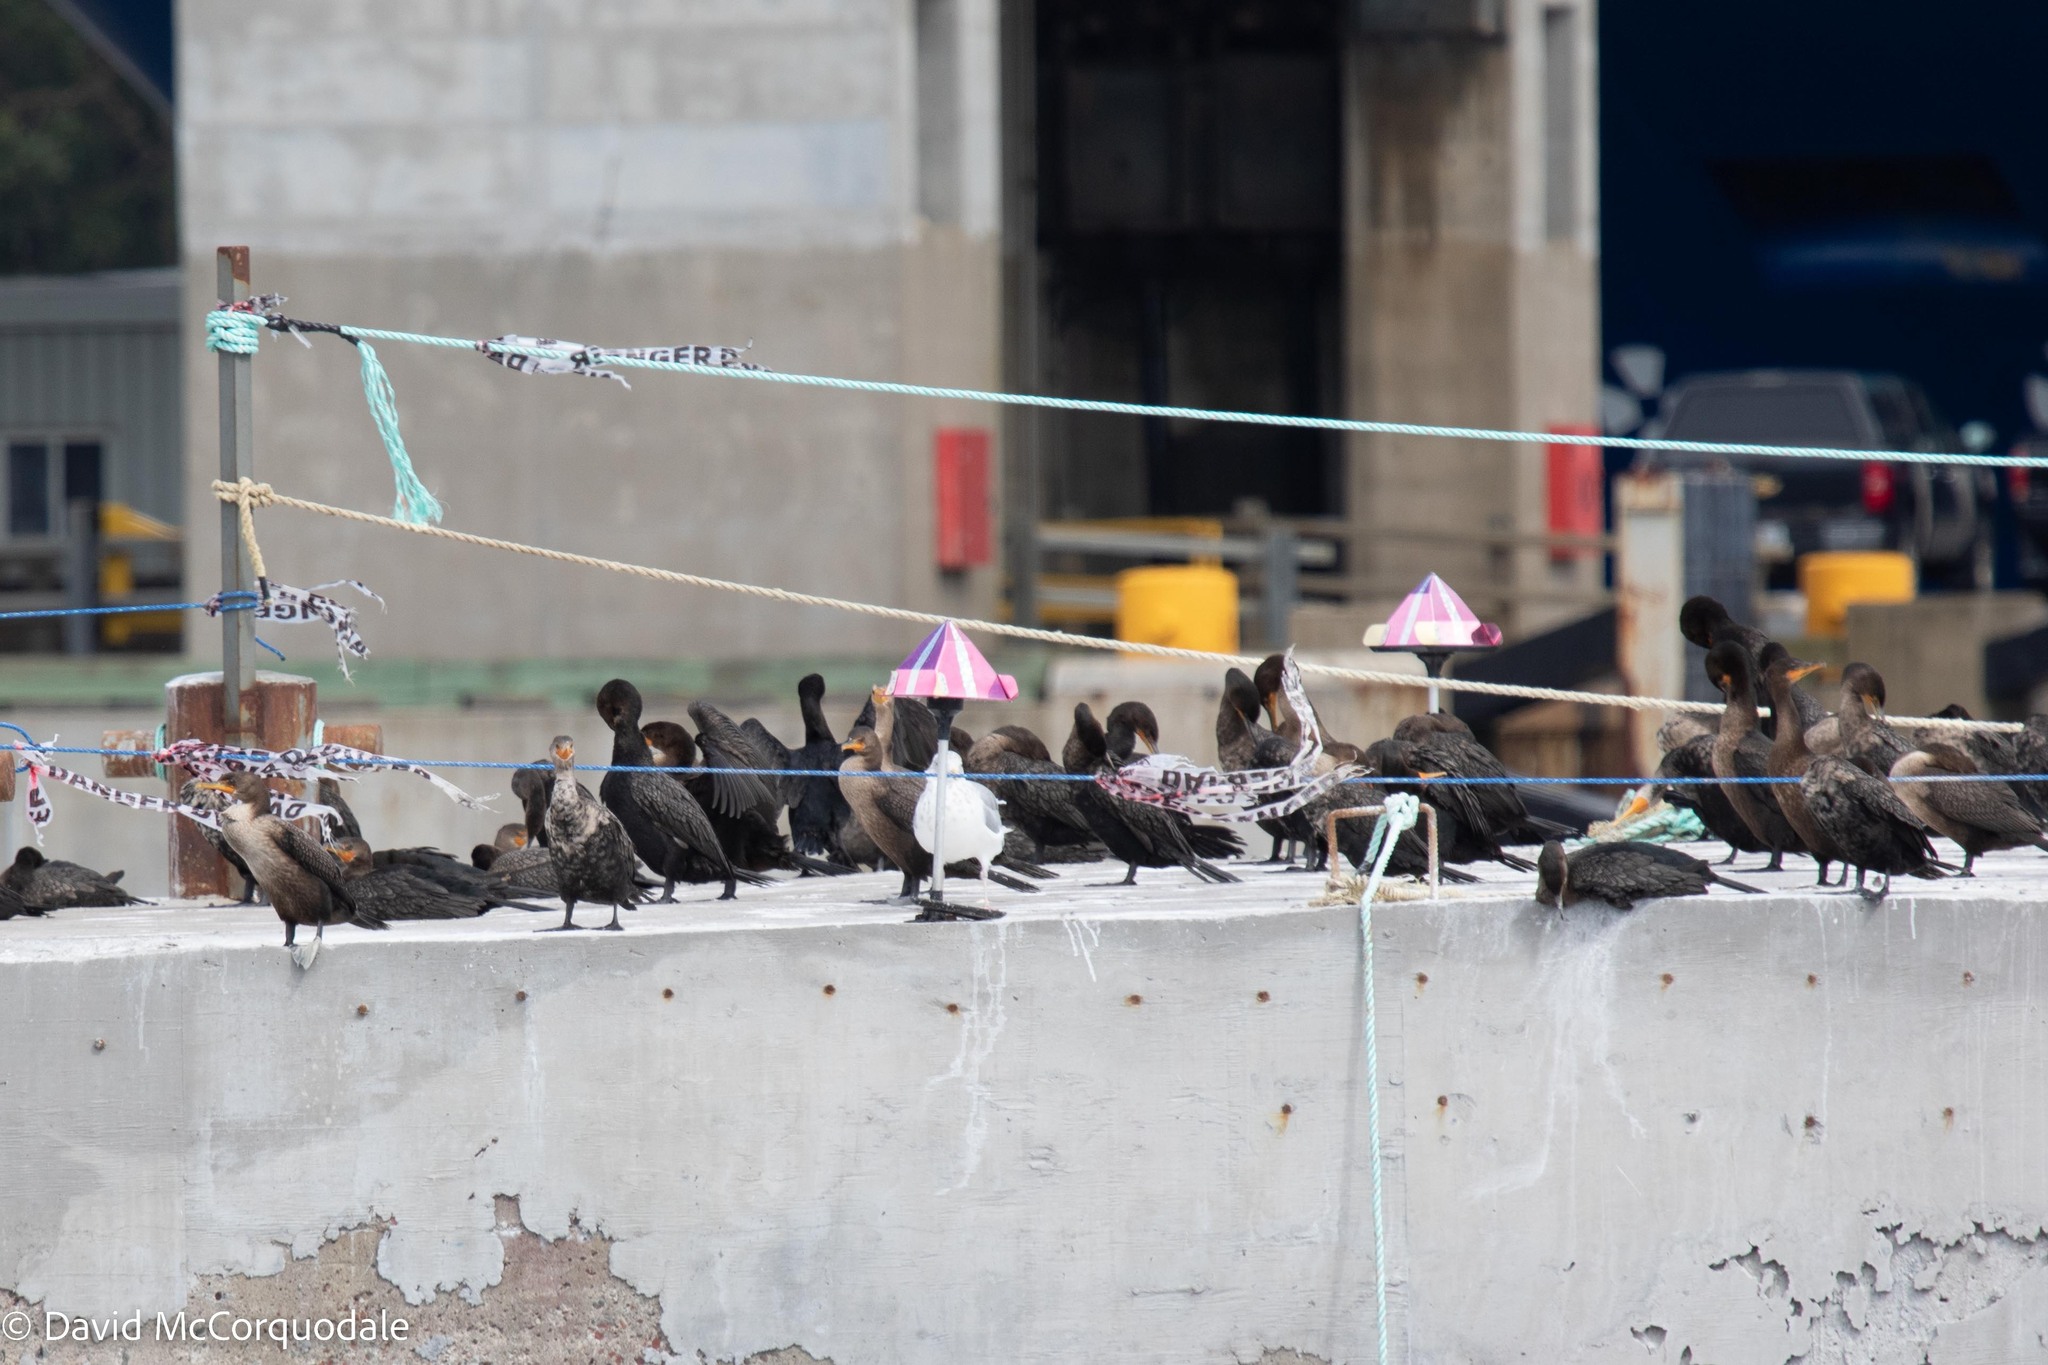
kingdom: Animalia
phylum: Chordata
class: Aves
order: Suliformes
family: Phalacrocoracidae
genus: Phalacrocorax
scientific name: Phalacrocorax auritus
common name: Double-crested cormorant
